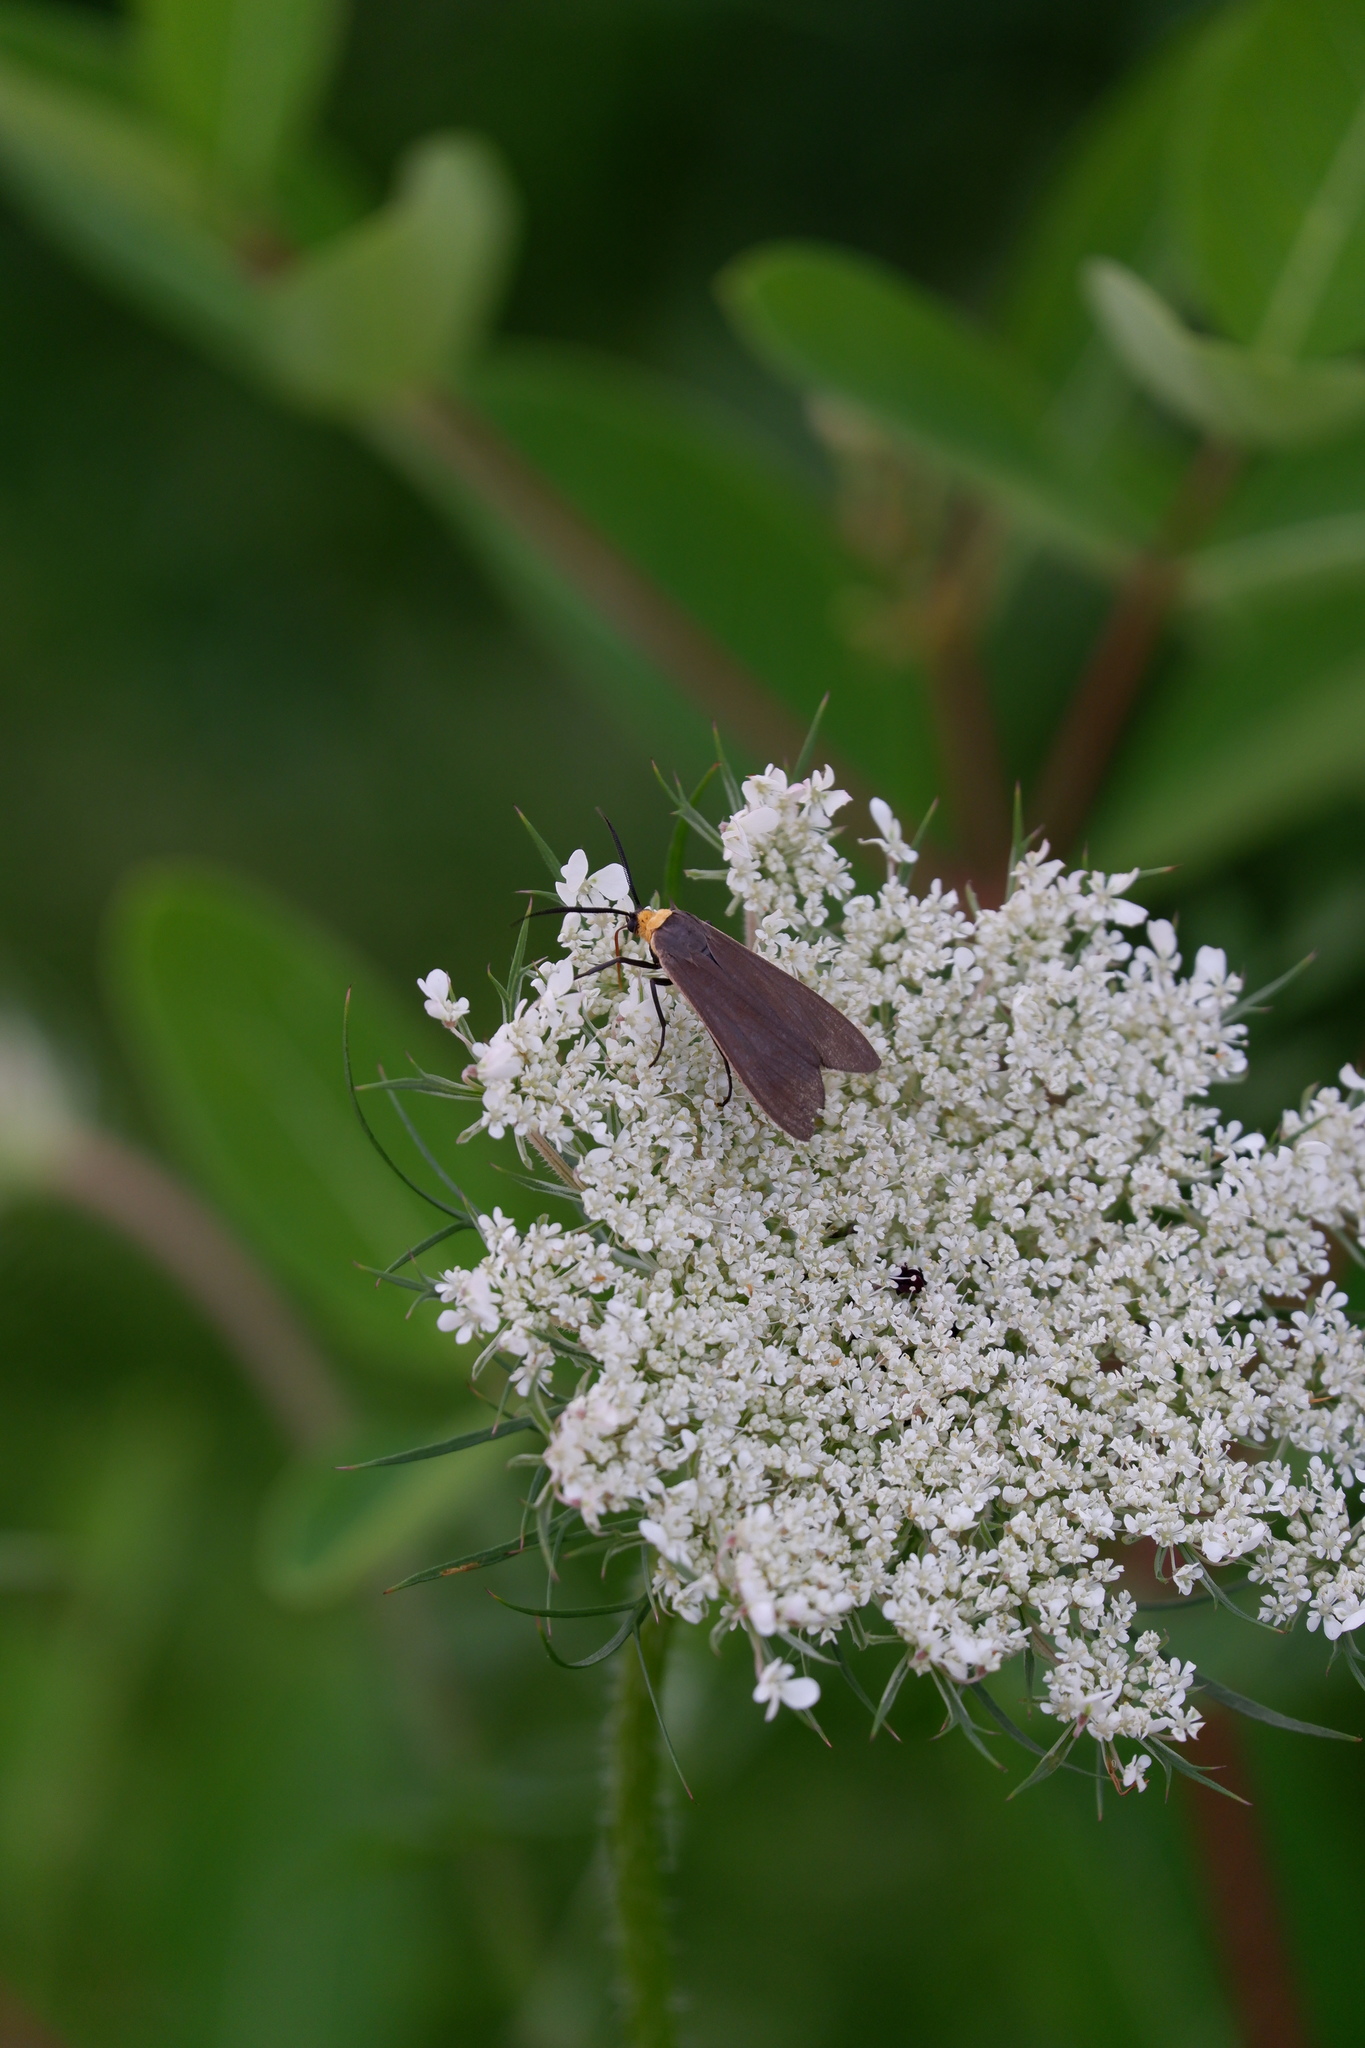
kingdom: Animalia
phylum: Arthropoda
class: Insecta
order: Lepidoptera
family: Erebidae
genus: Cisseps
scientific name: Cisseps fulvicollis
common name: Yellow-collared scape moth
